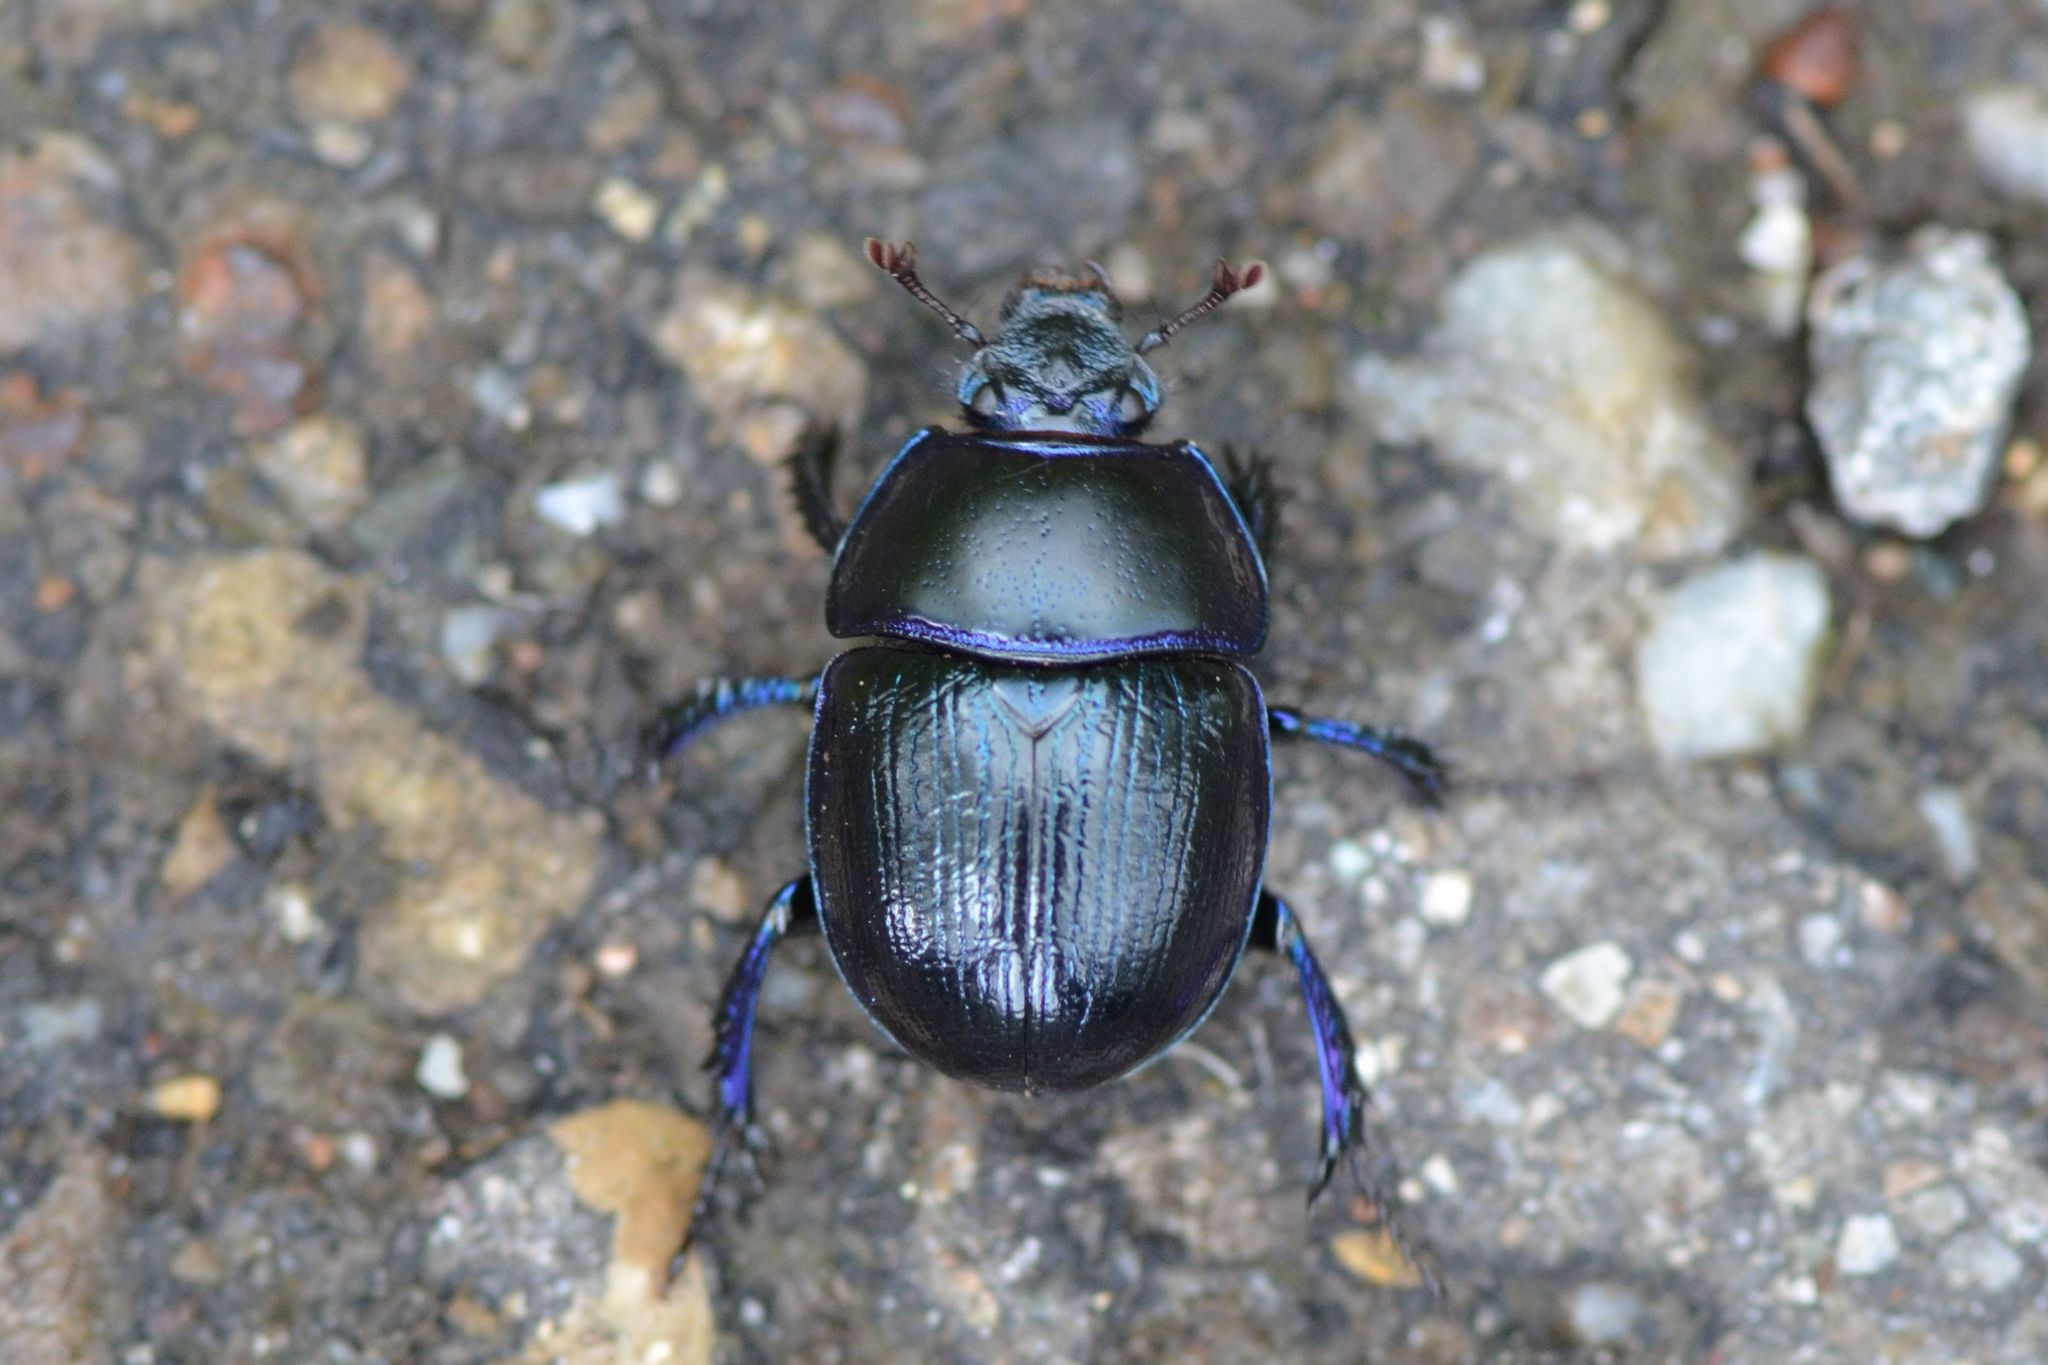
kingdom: Animalia
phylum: Arthropoda
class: Insecta
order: Coleoptera
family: Geotrupidae
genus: Anoplotrupes
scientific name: Anoplotrupes stercorosus
